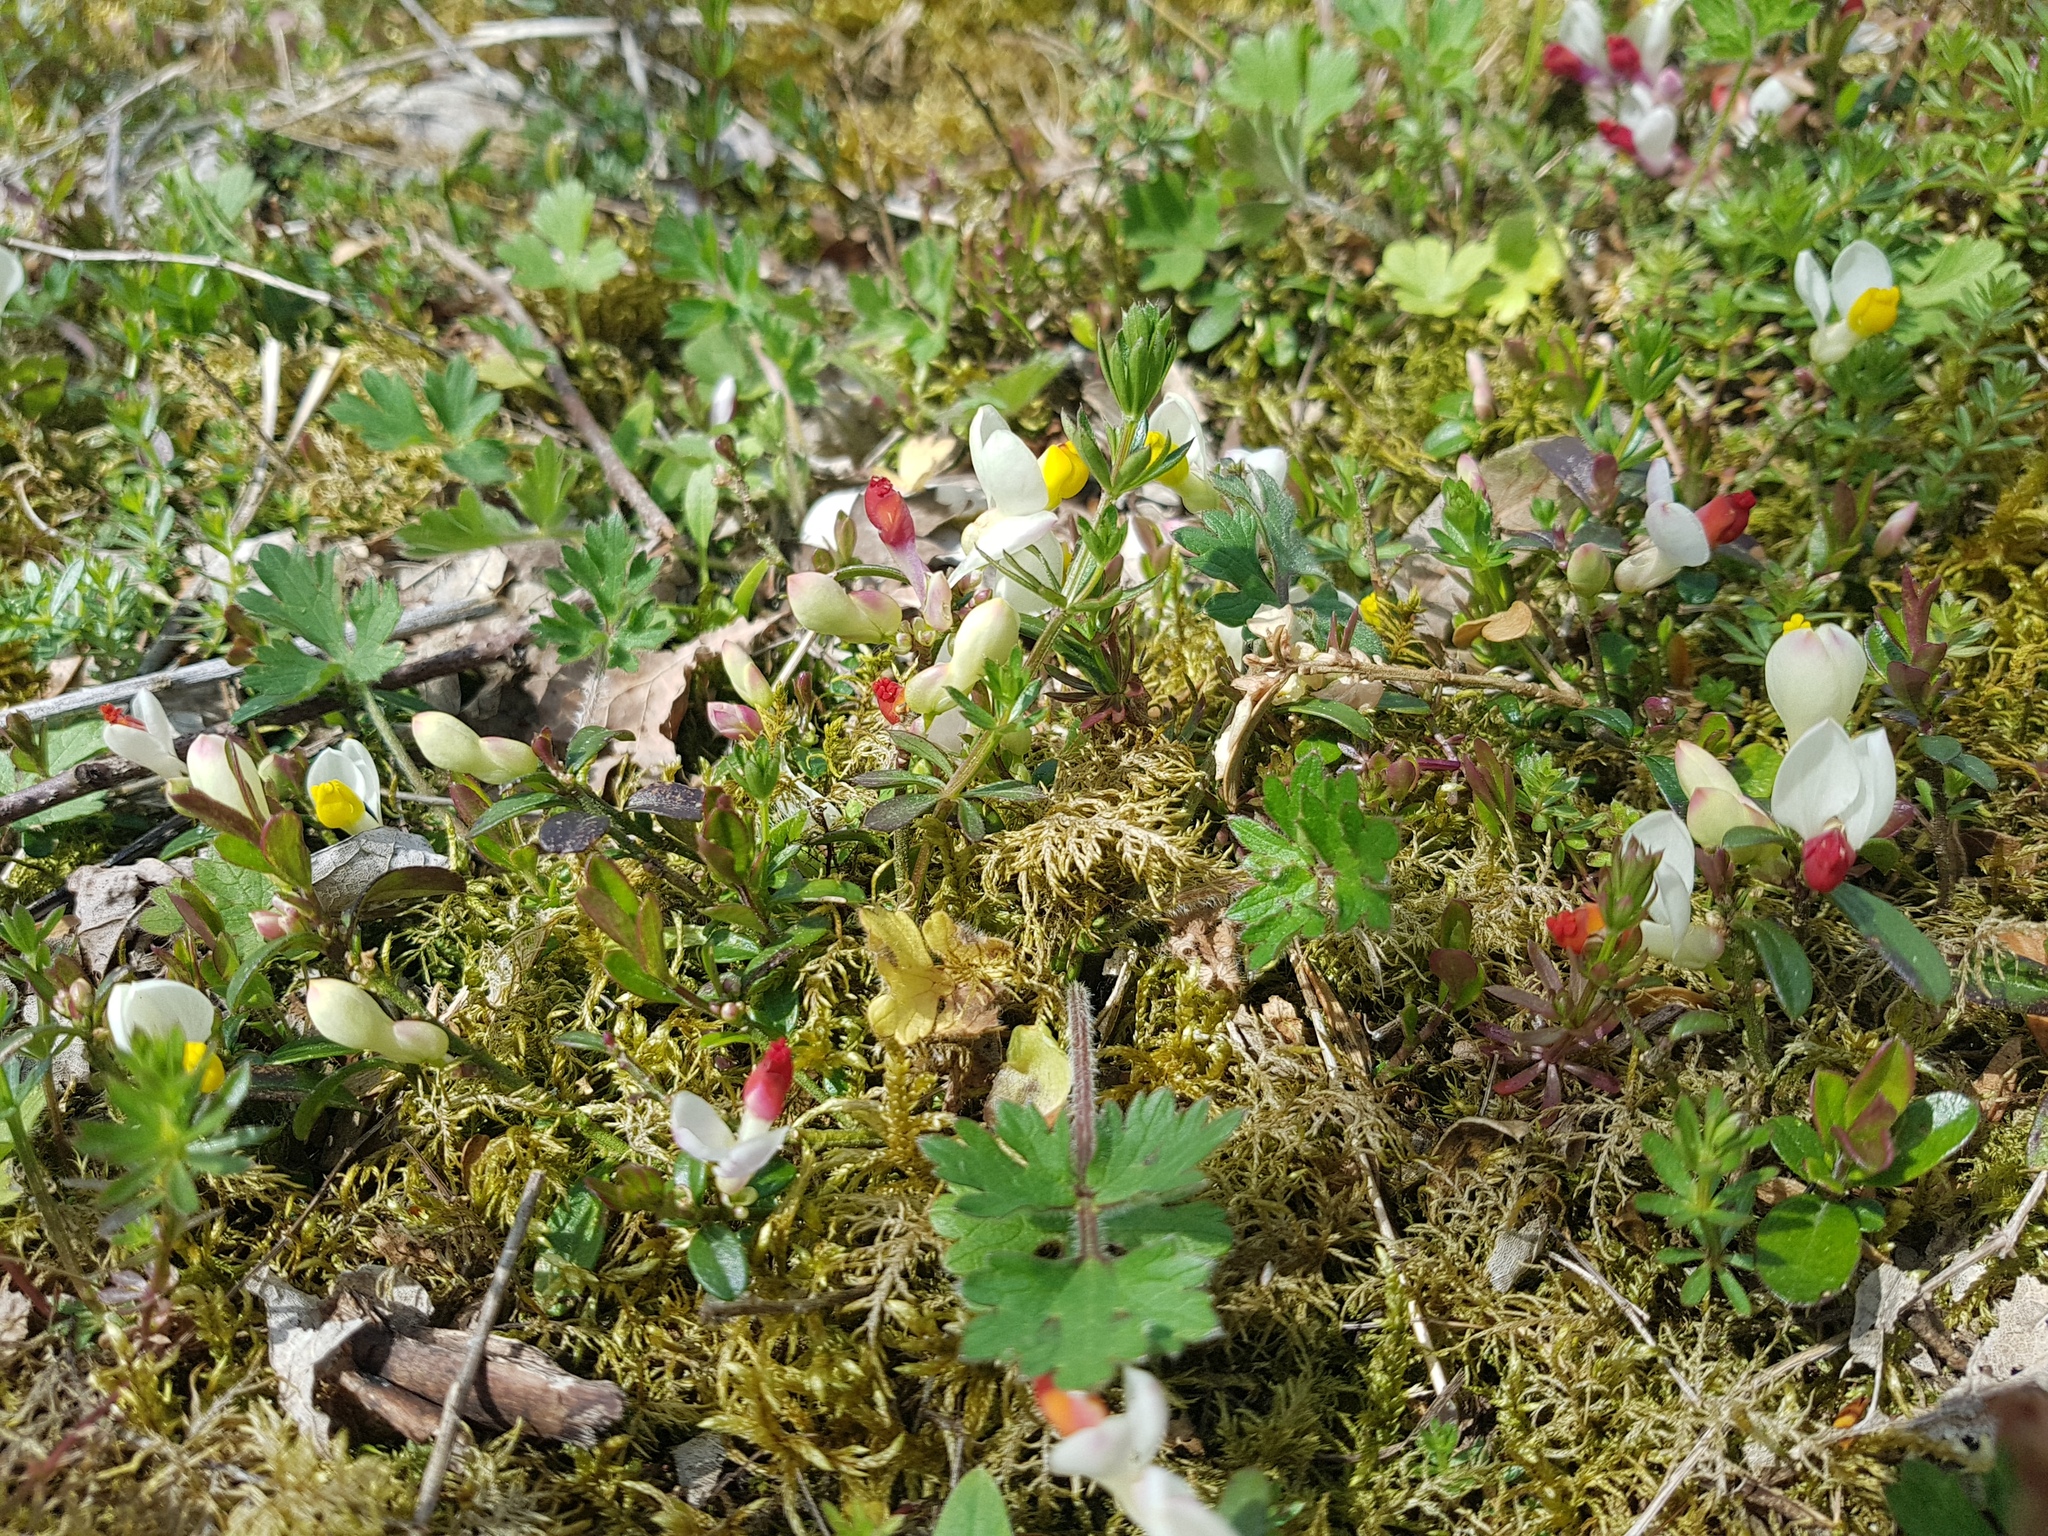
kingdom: Plantae
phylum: Tracheophyta
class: Magnoliopsida
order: Fabales
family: Polygalaceae
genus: Polygaloides
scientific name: Polygaloides chamaebuxus
